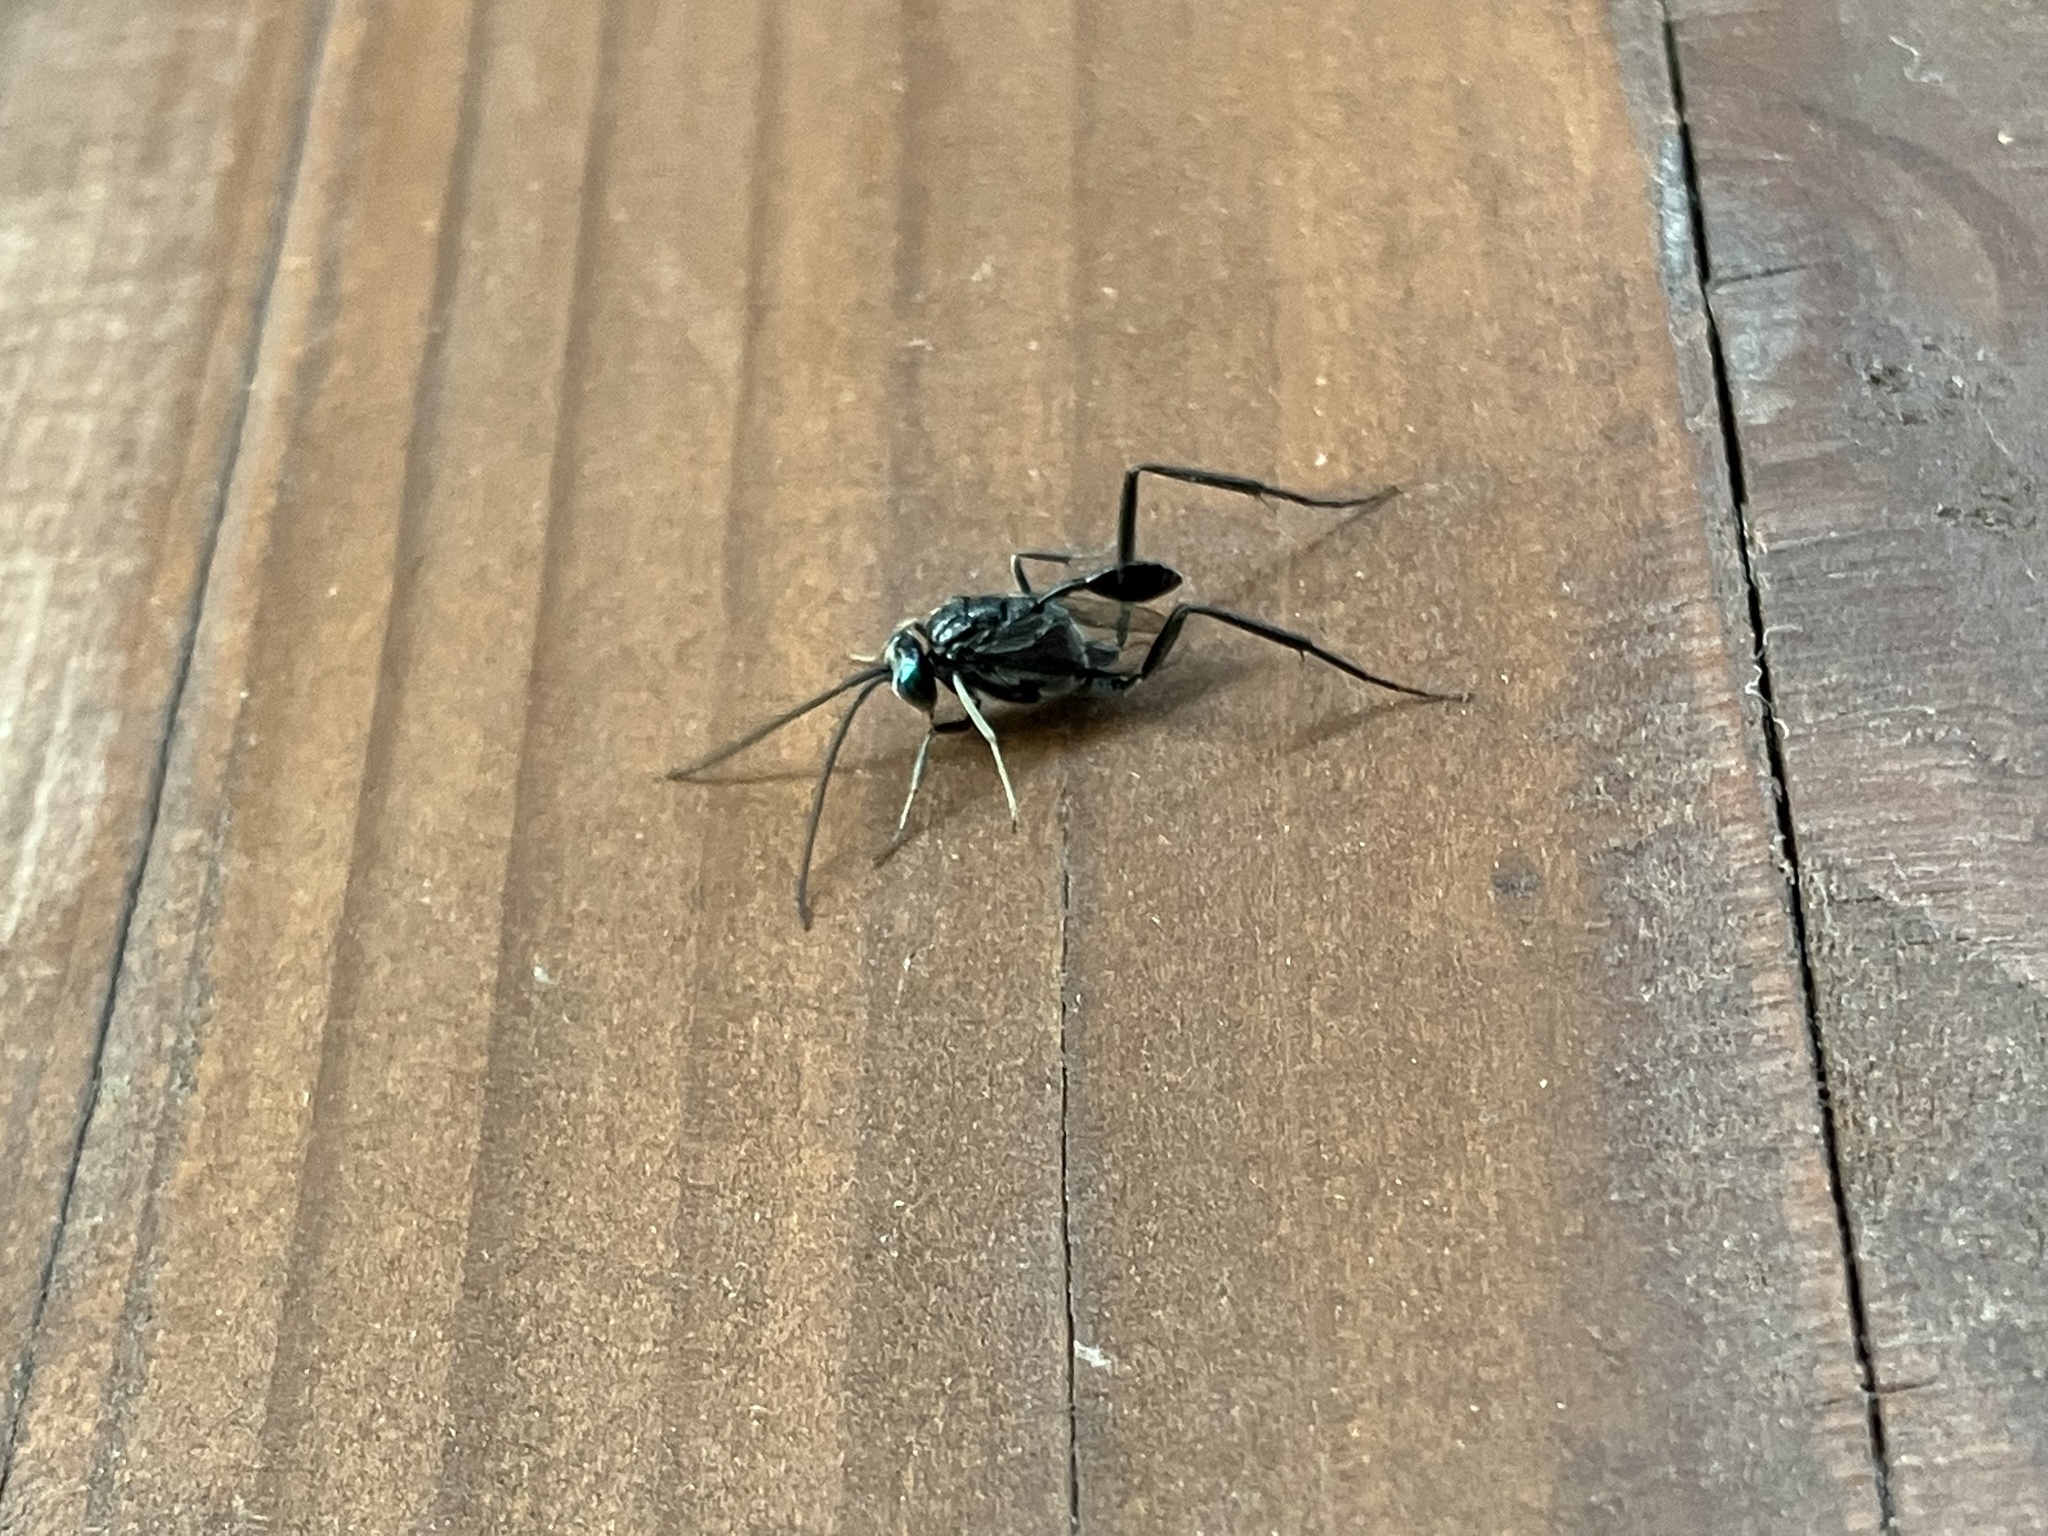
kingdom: Animalia
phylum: Arthropoda
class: Insecta
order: Hymenoptera
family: Evaniidae
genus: Evania
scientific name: Evania appendigaster
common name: Ensign wasp
